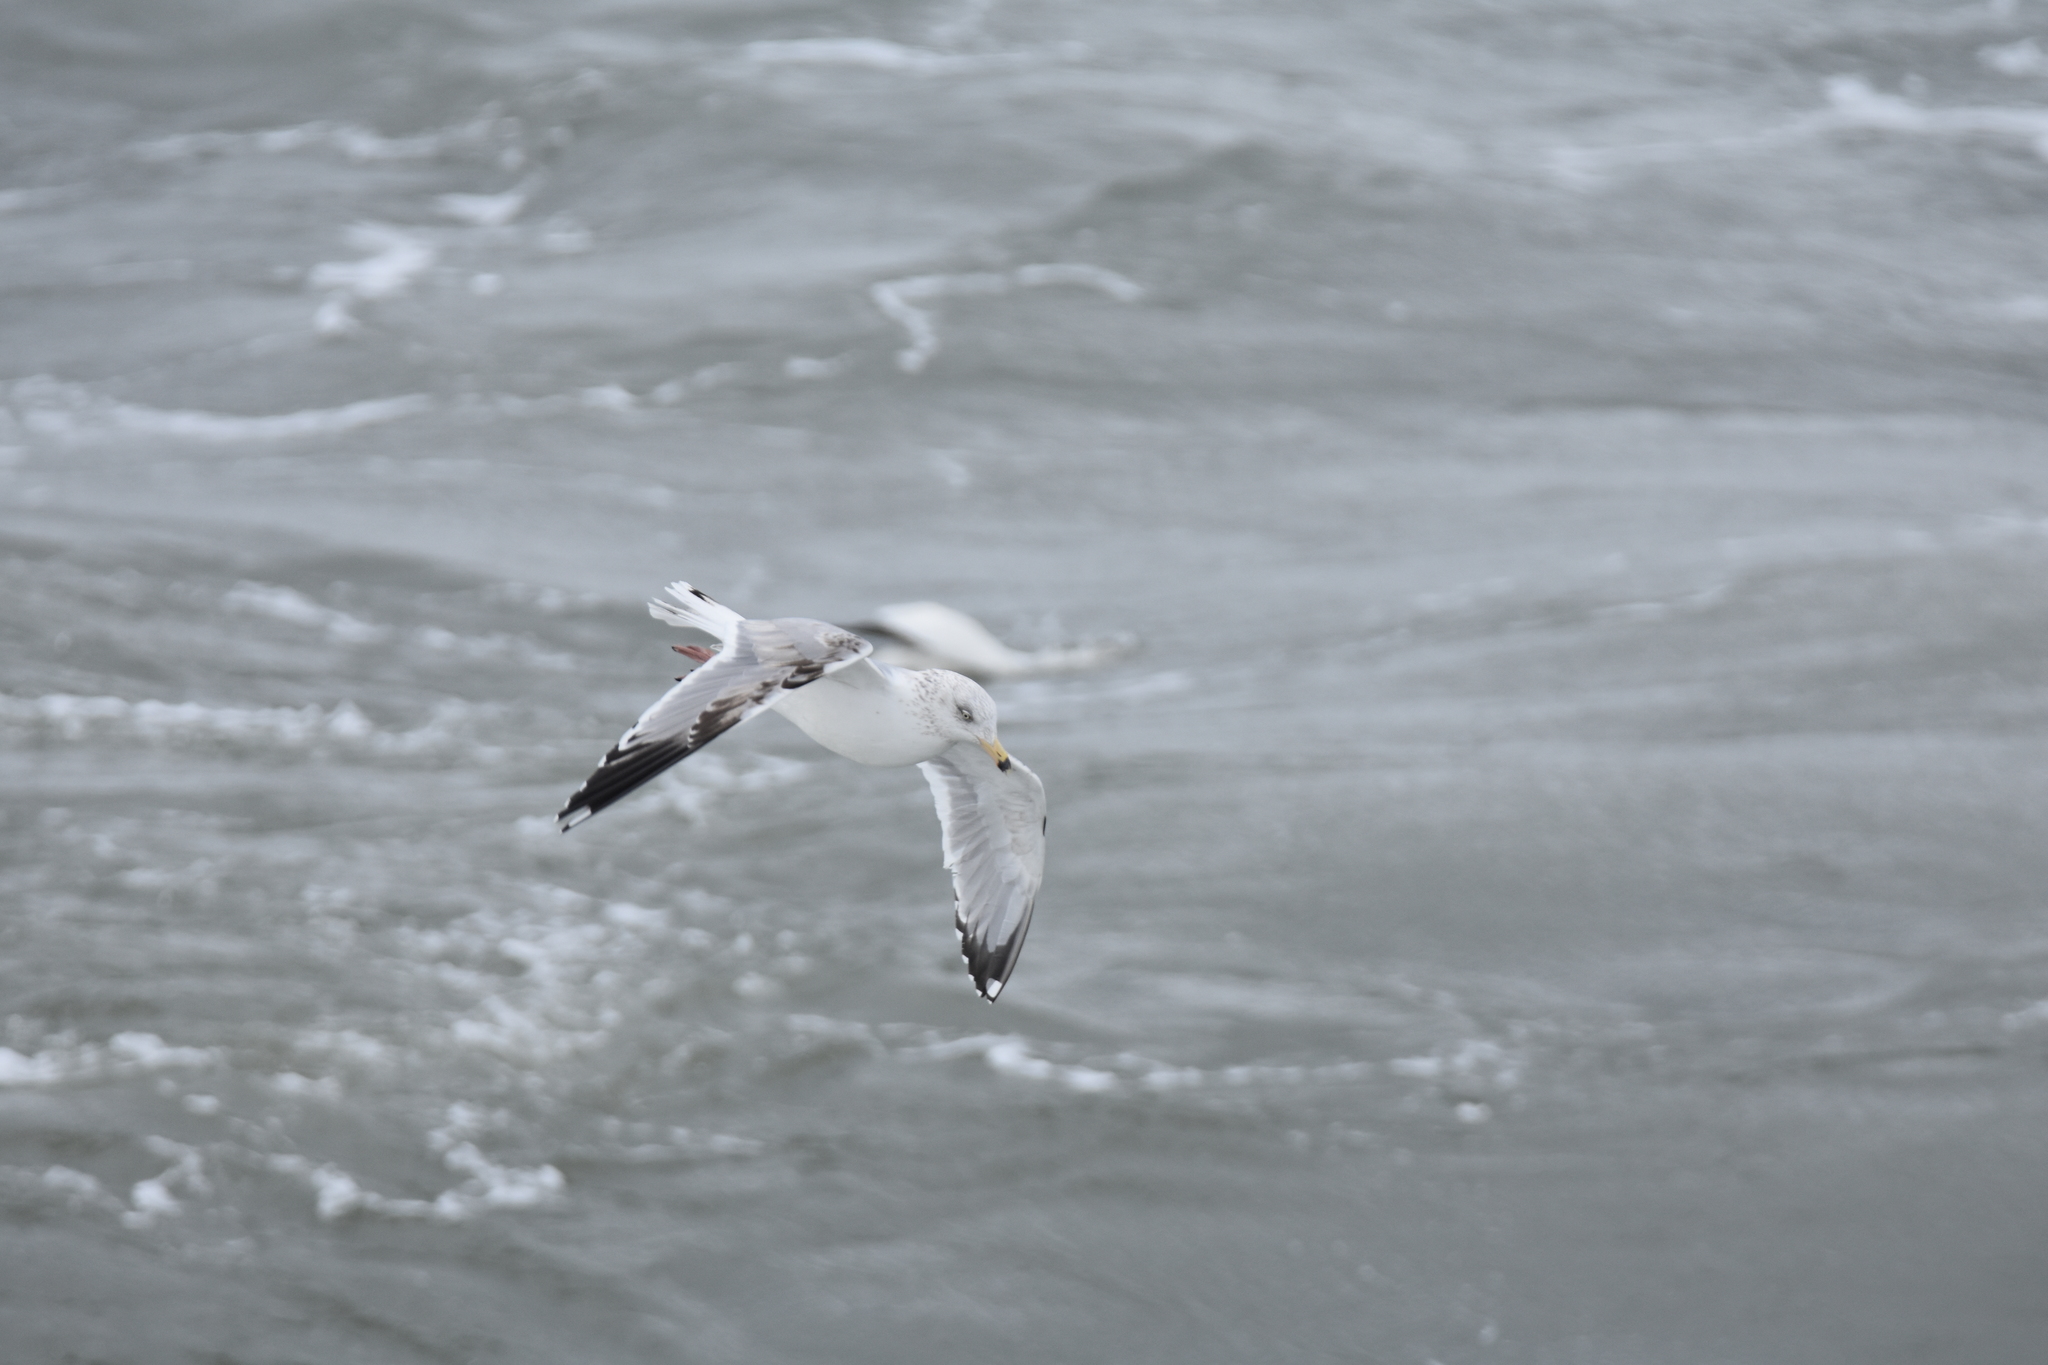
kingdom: Animalia
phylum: Chordata
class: Aves
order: Charadriiformes
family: Laridae
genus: Larus
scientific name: Larus delawarensis
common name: Ring-billed gull
